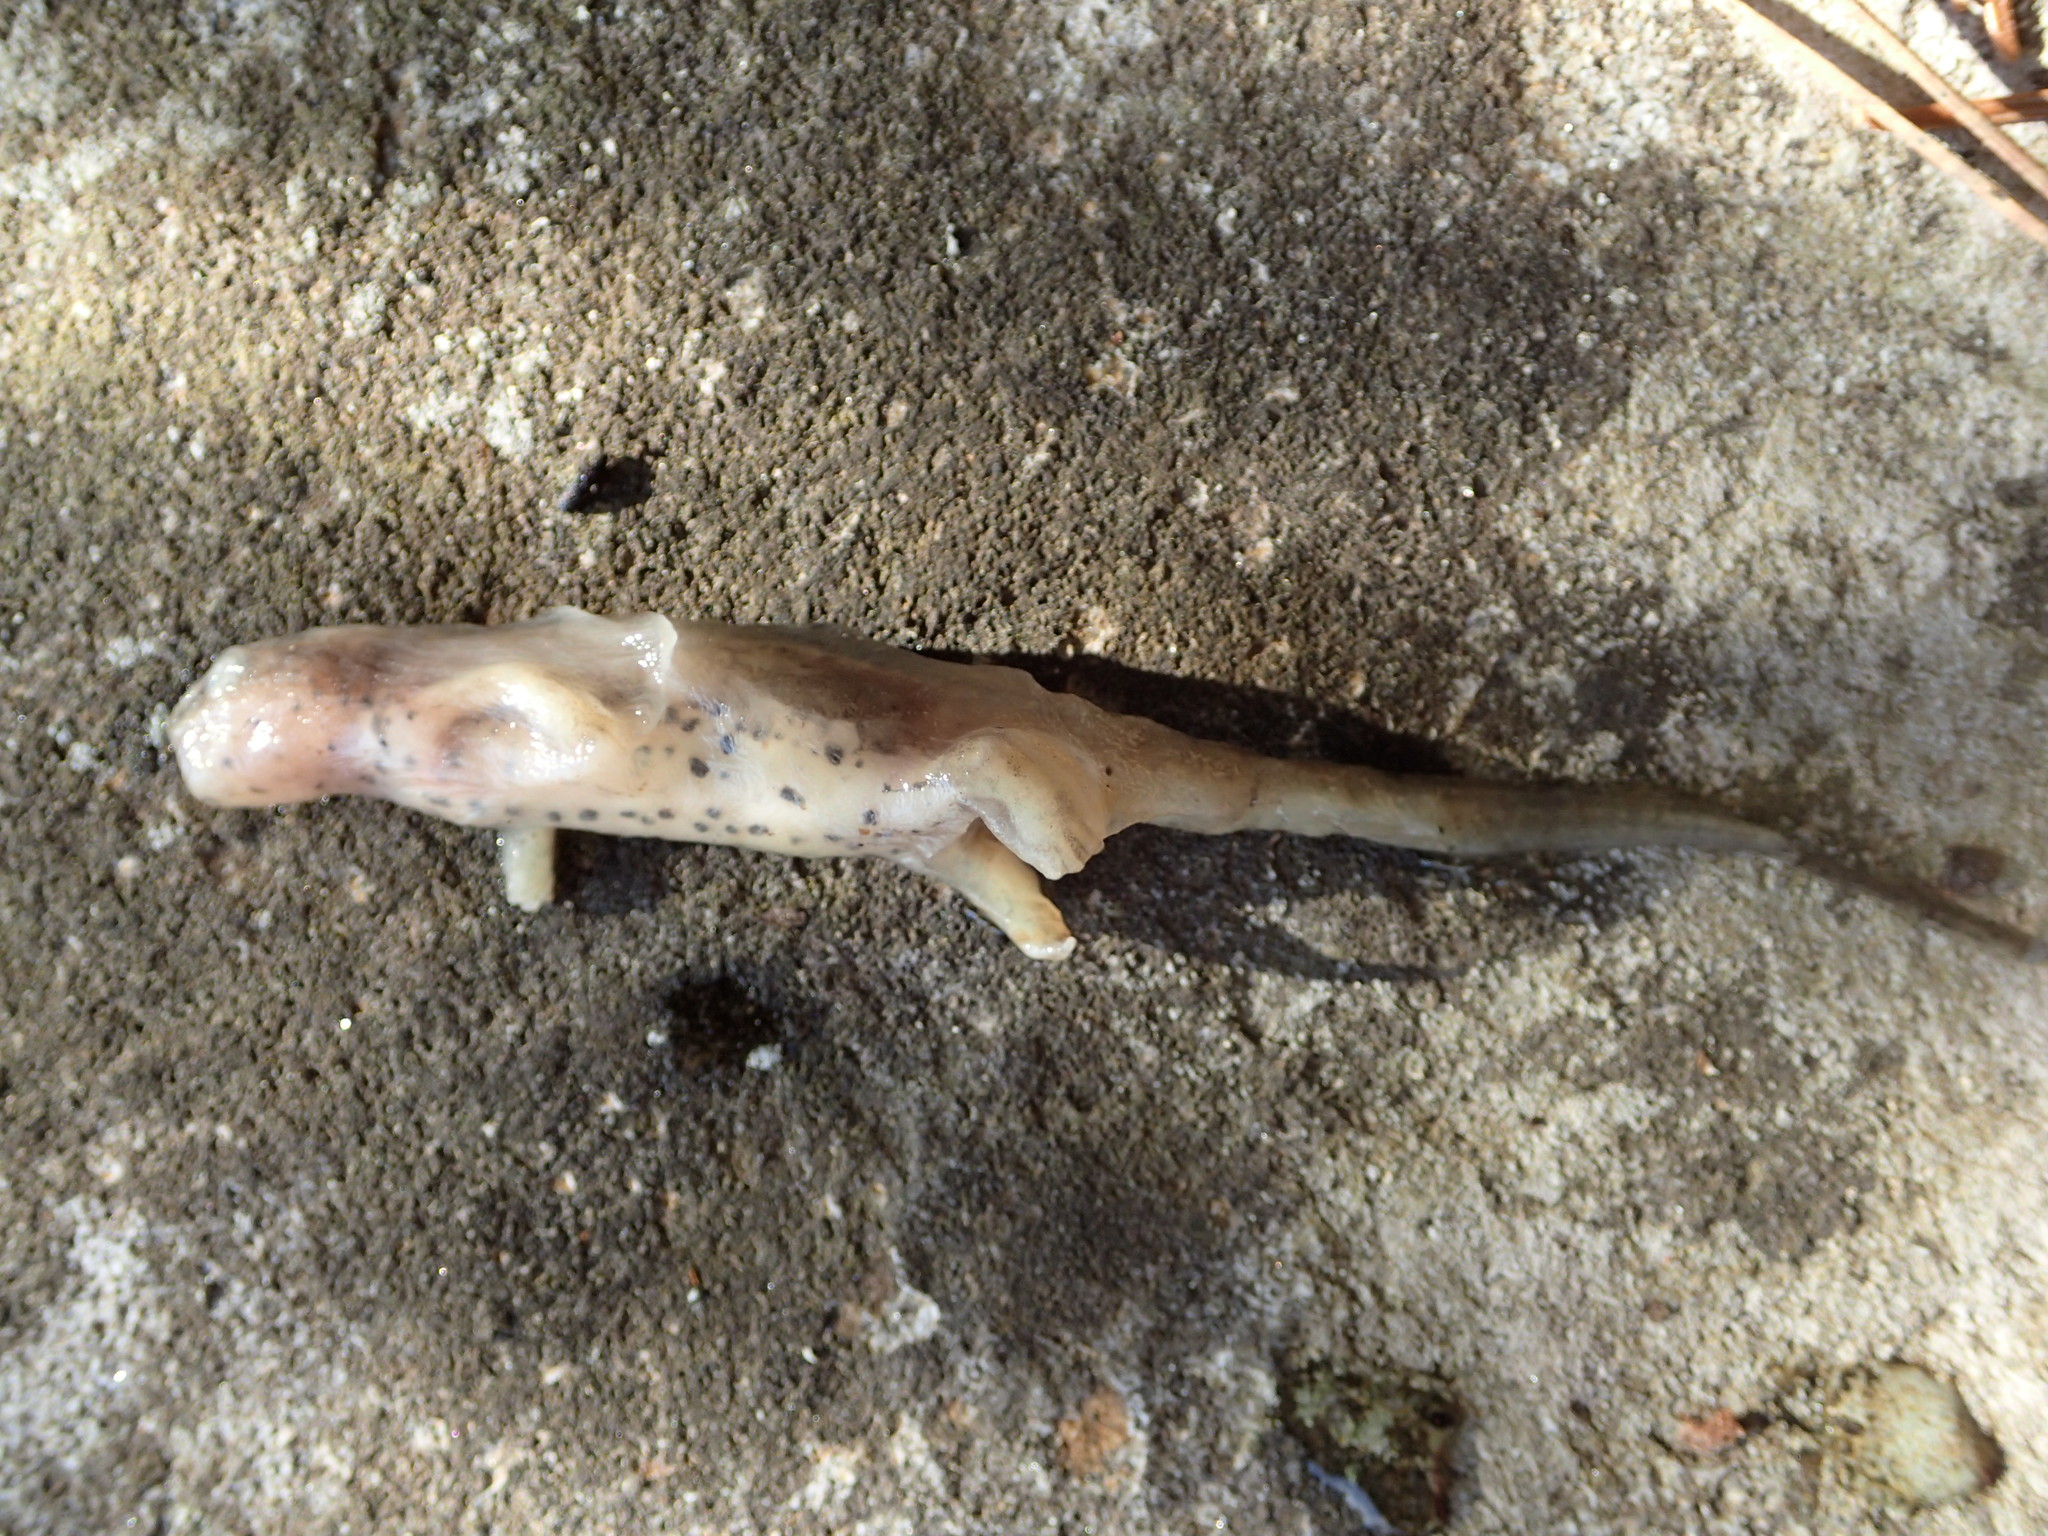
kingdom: Animalia
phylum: Chordata
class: Amphibia
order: Caudata
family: Salamandridae
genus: Notophthalmus
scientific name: Notophthalmus viridescens
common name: Eastern newt
